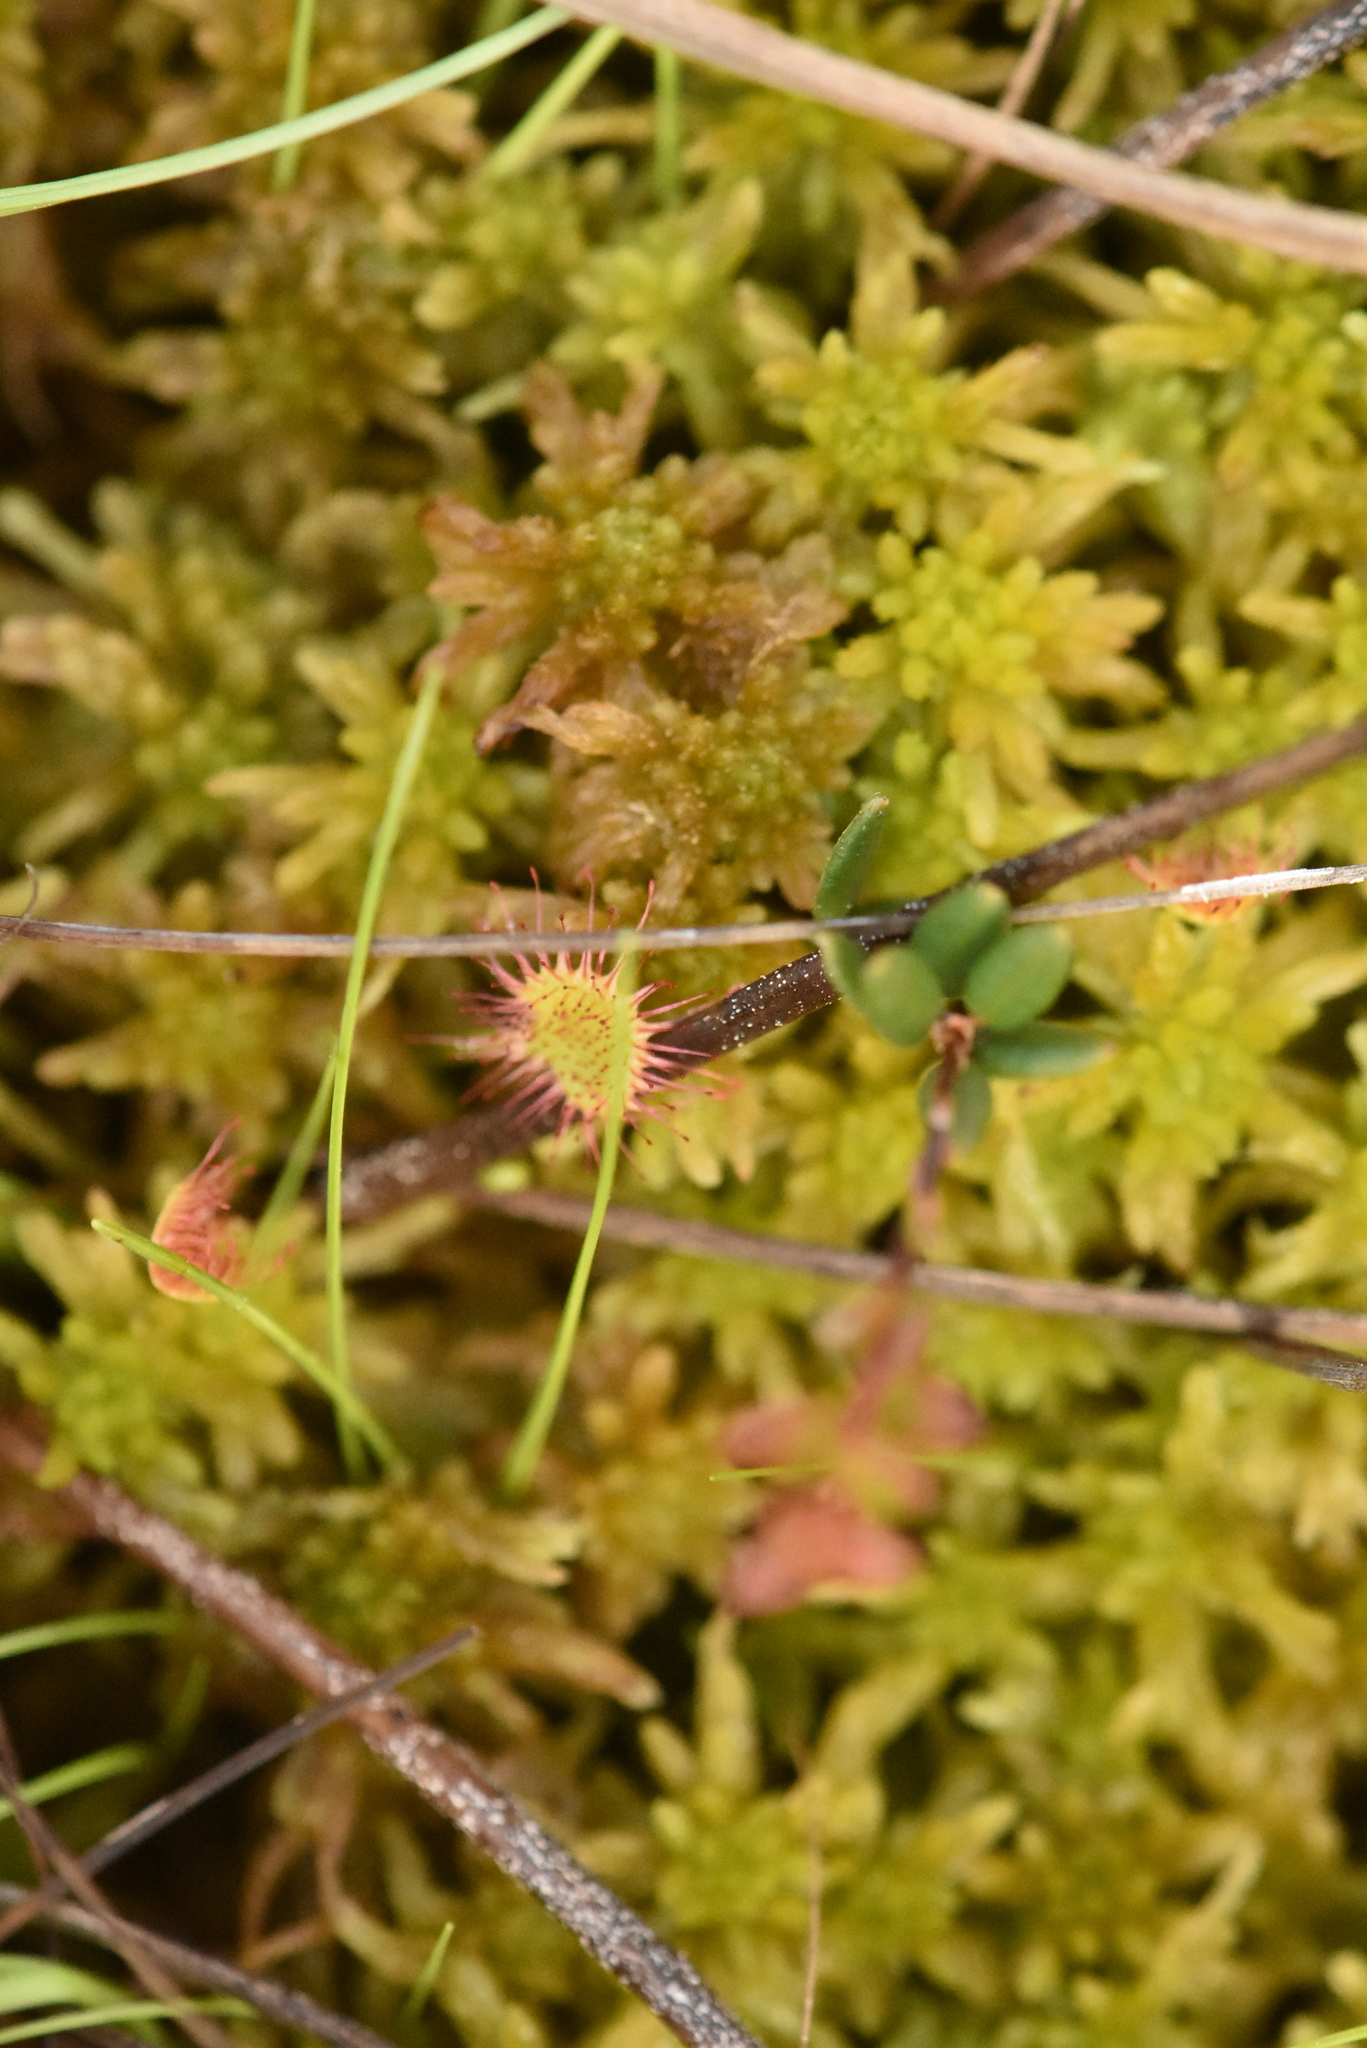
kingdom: Plantae
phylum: Tracheophyta
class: Magnoliopsida
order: Caryophyllales
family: Droseraceae
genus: Drosera
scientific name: Drosera rotundifolia
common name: Round-leaved sundew
